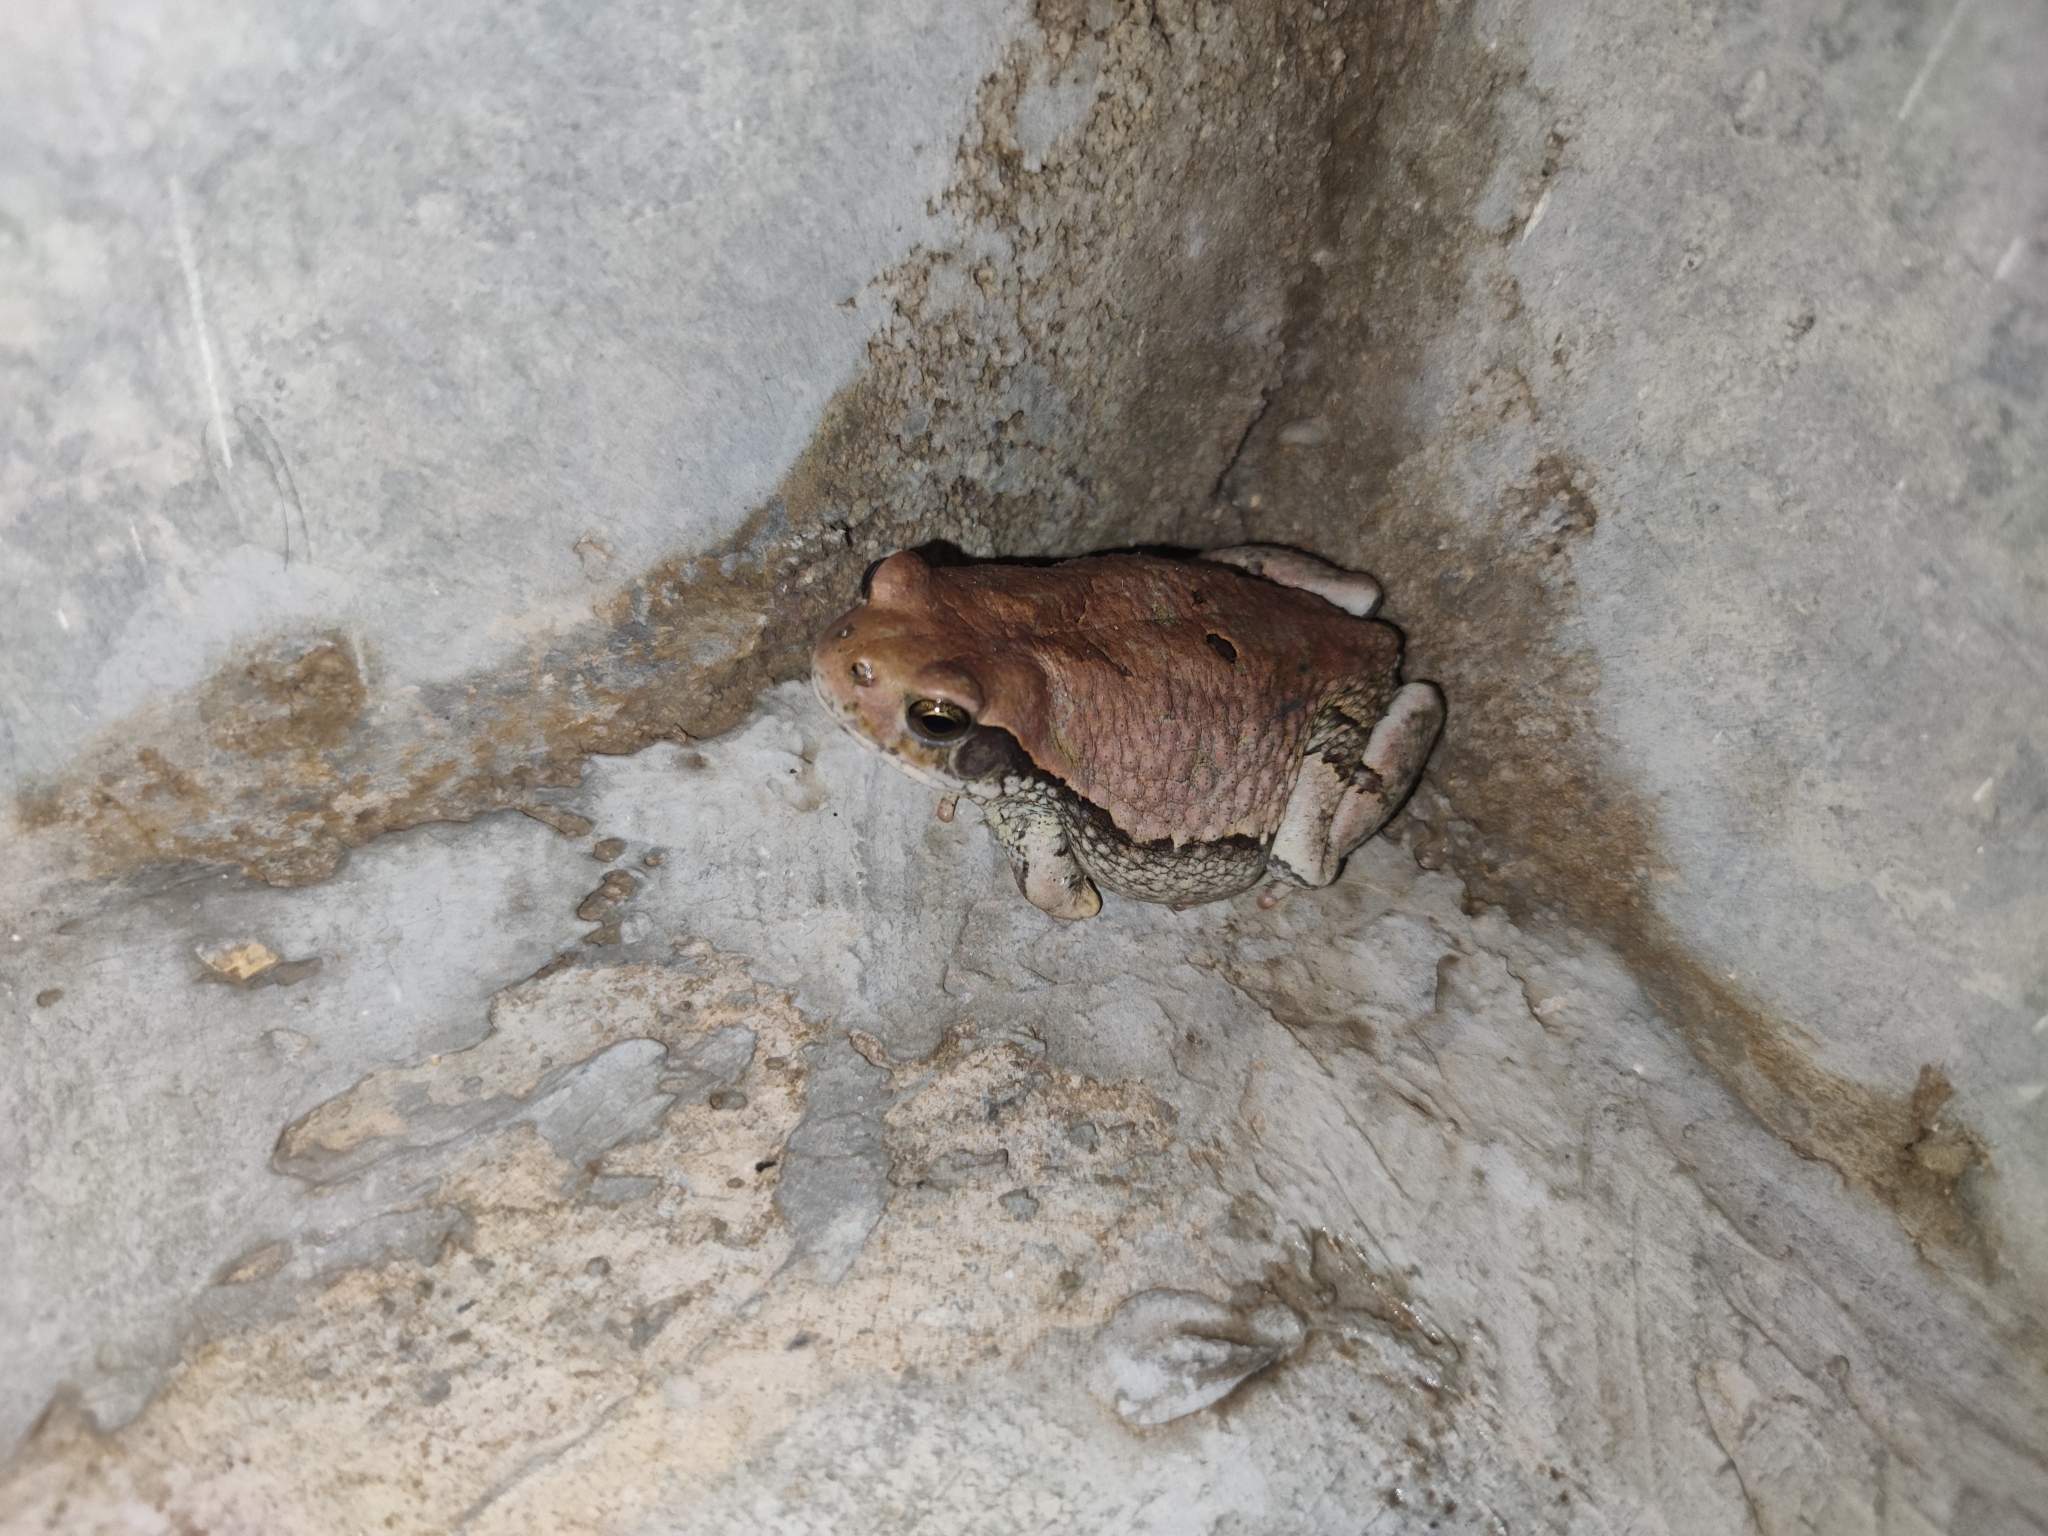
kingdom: Animalia
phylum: Chordata
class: Amphibia
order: Anura
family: Bufonidae
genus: Schismaderma
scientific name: Schismaderma carens
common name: African split-skin toad
